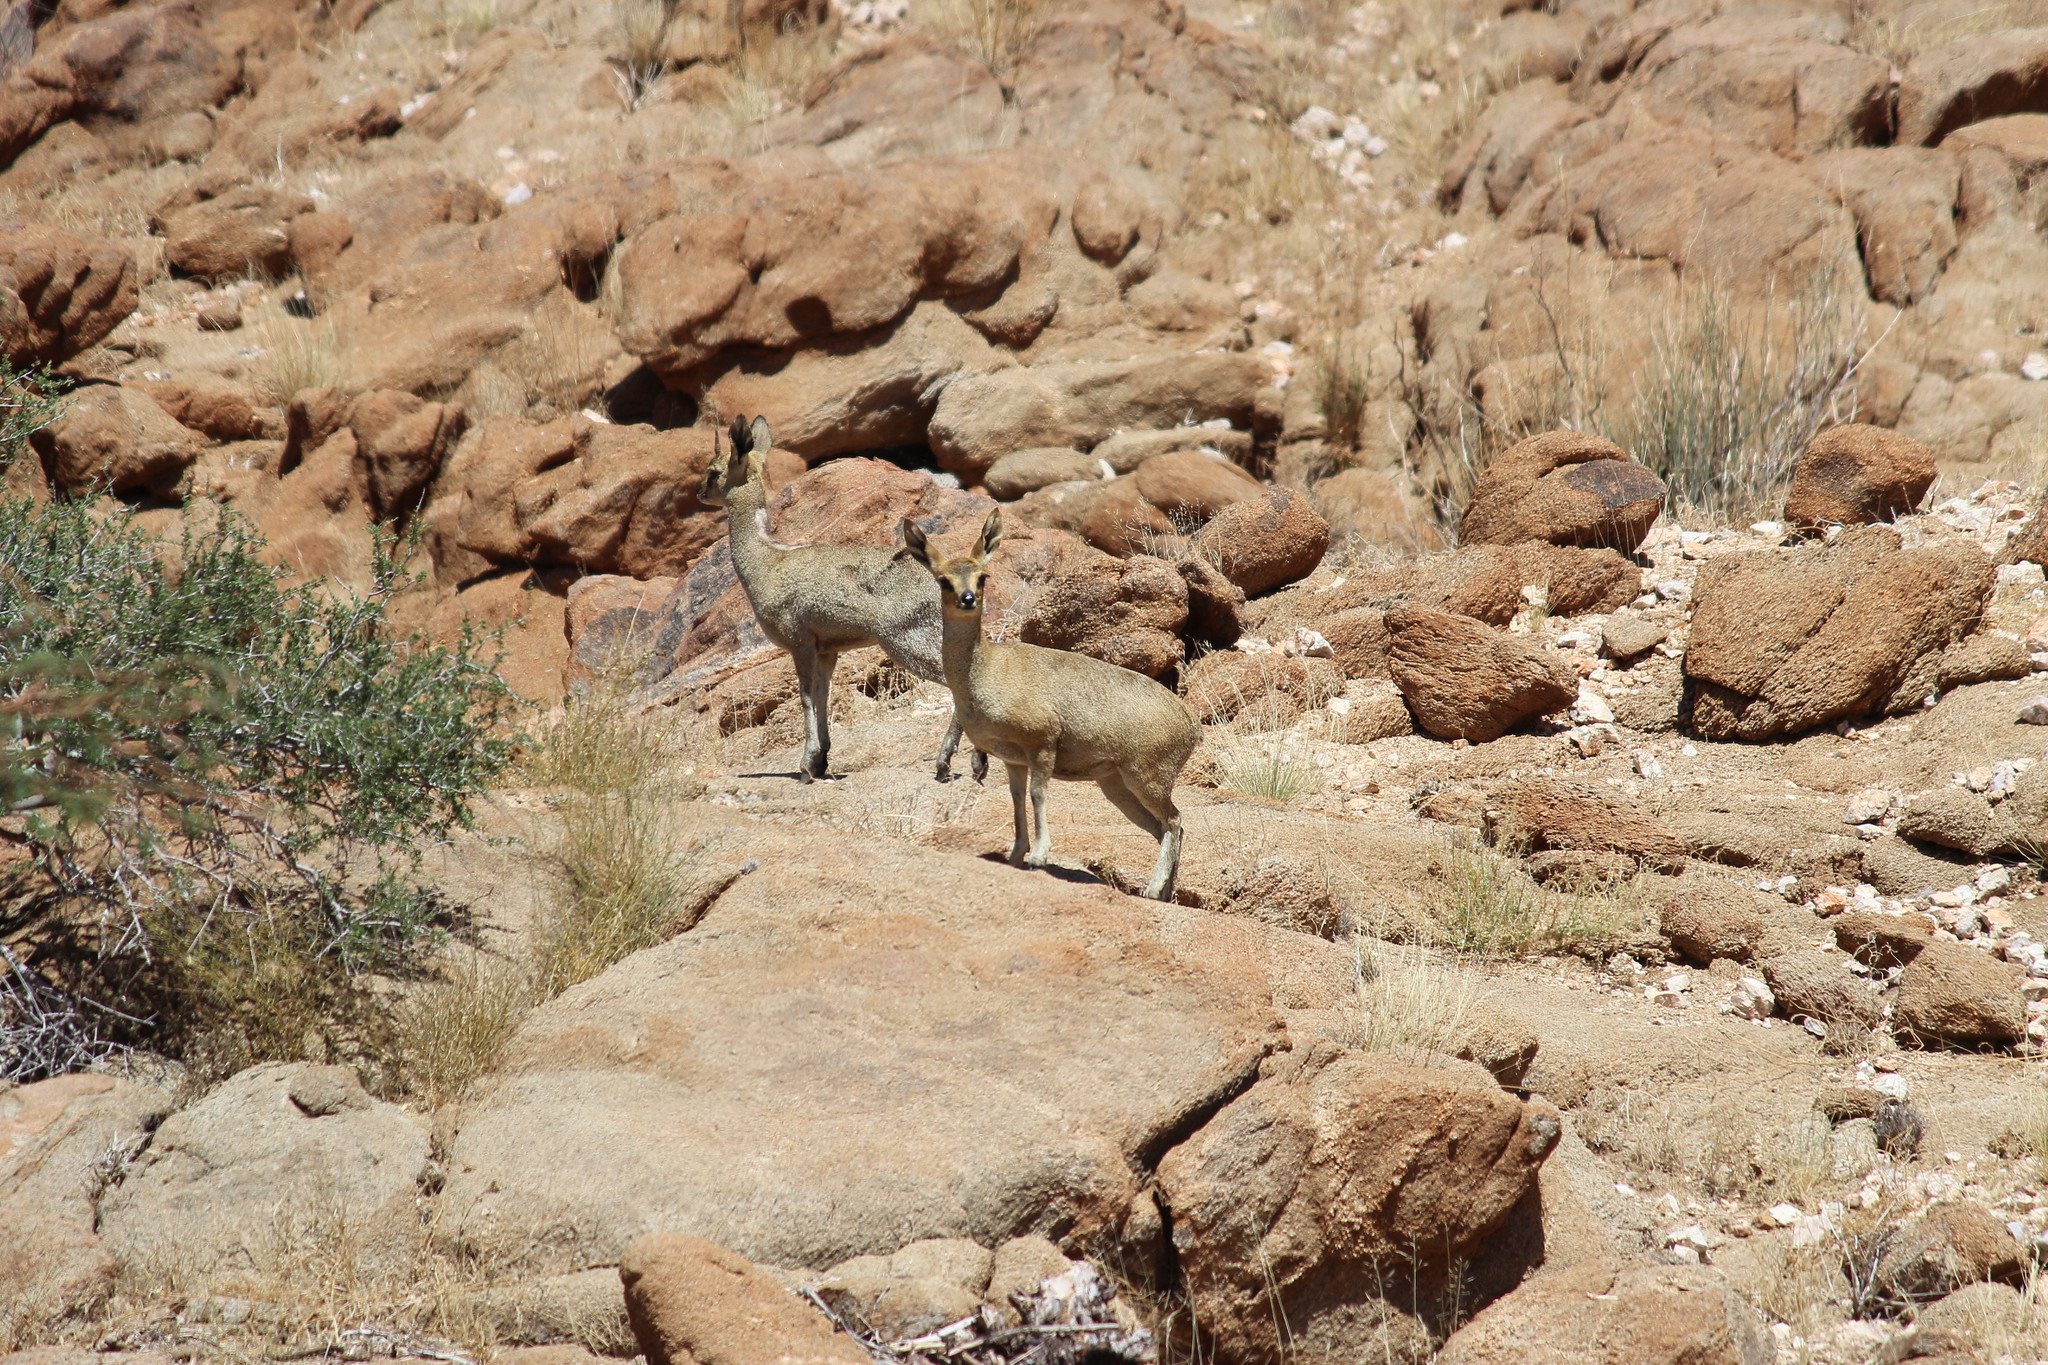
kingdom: Animalia
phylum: Chordata
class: Mammalia
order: Artiodactyla
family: Bovidae
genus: Oreotragus
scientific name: Oreotragus oreotragus
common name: Klipspringer
